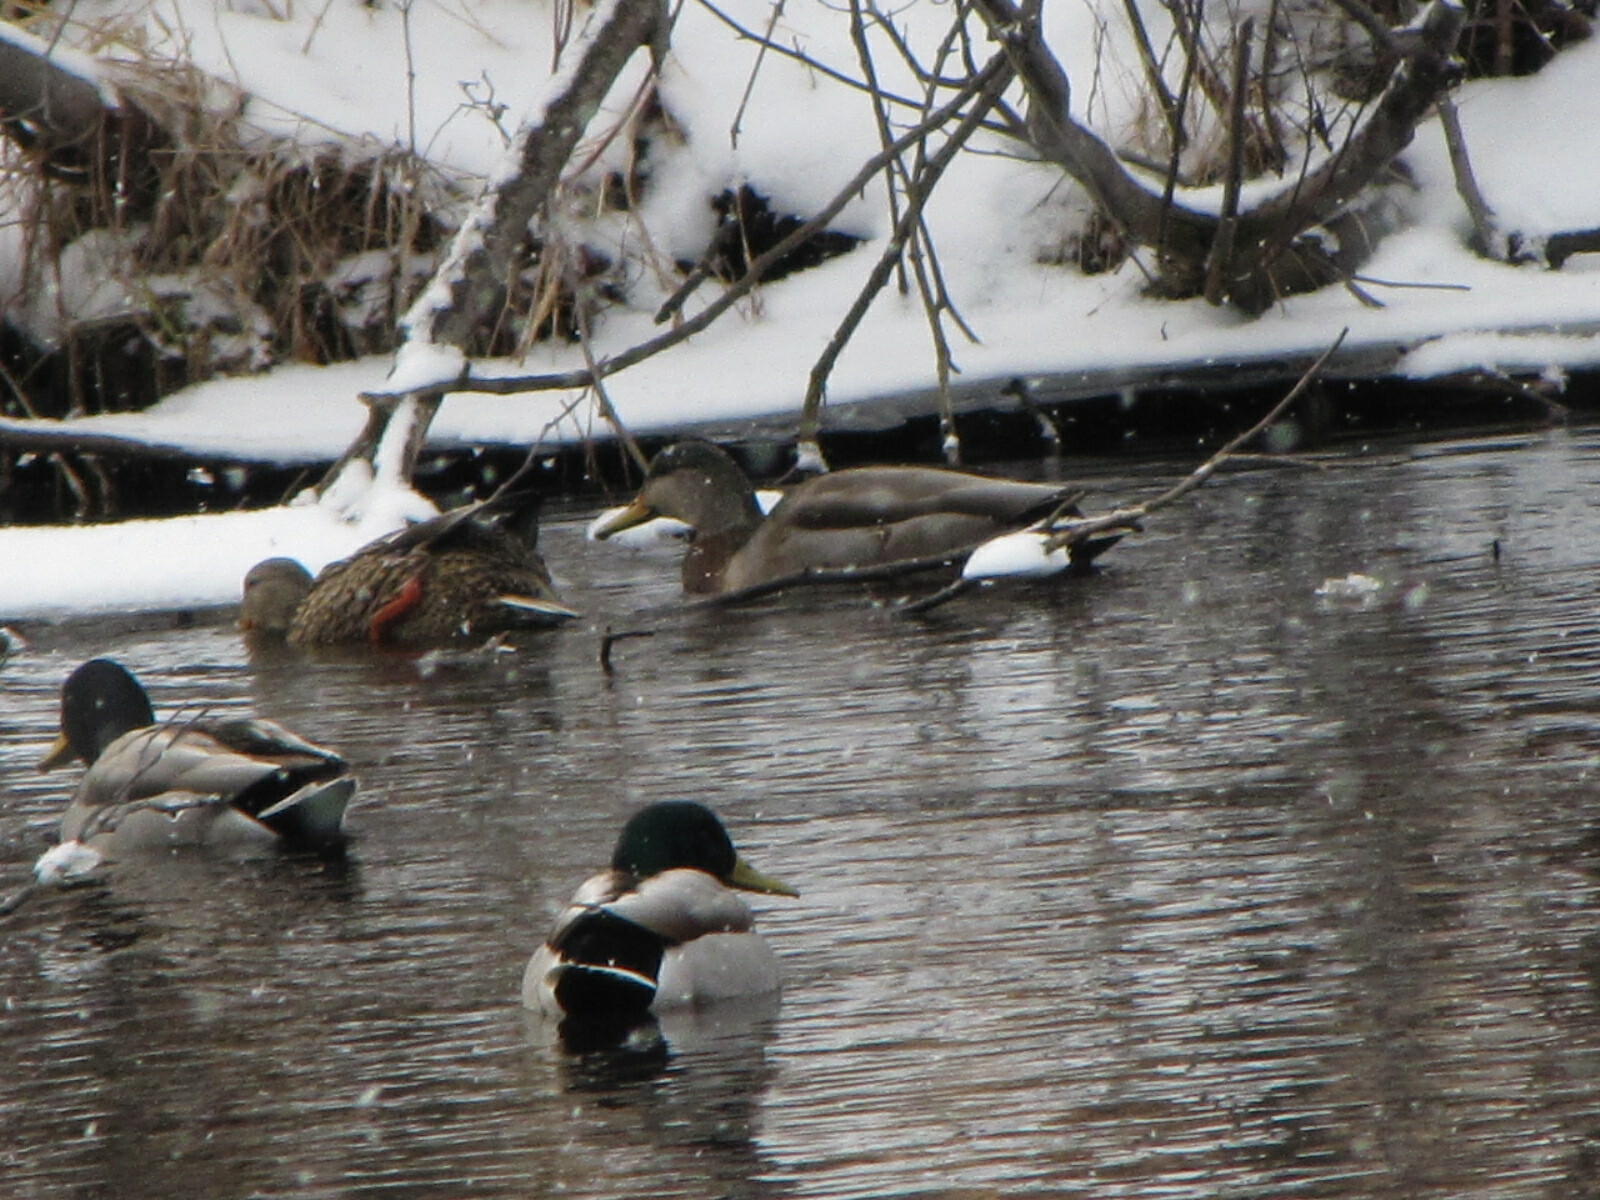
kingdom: Animalia
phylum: Chordata
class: Aves
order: Anseriformes
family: Anatidae
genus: Anas
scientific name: Anas
